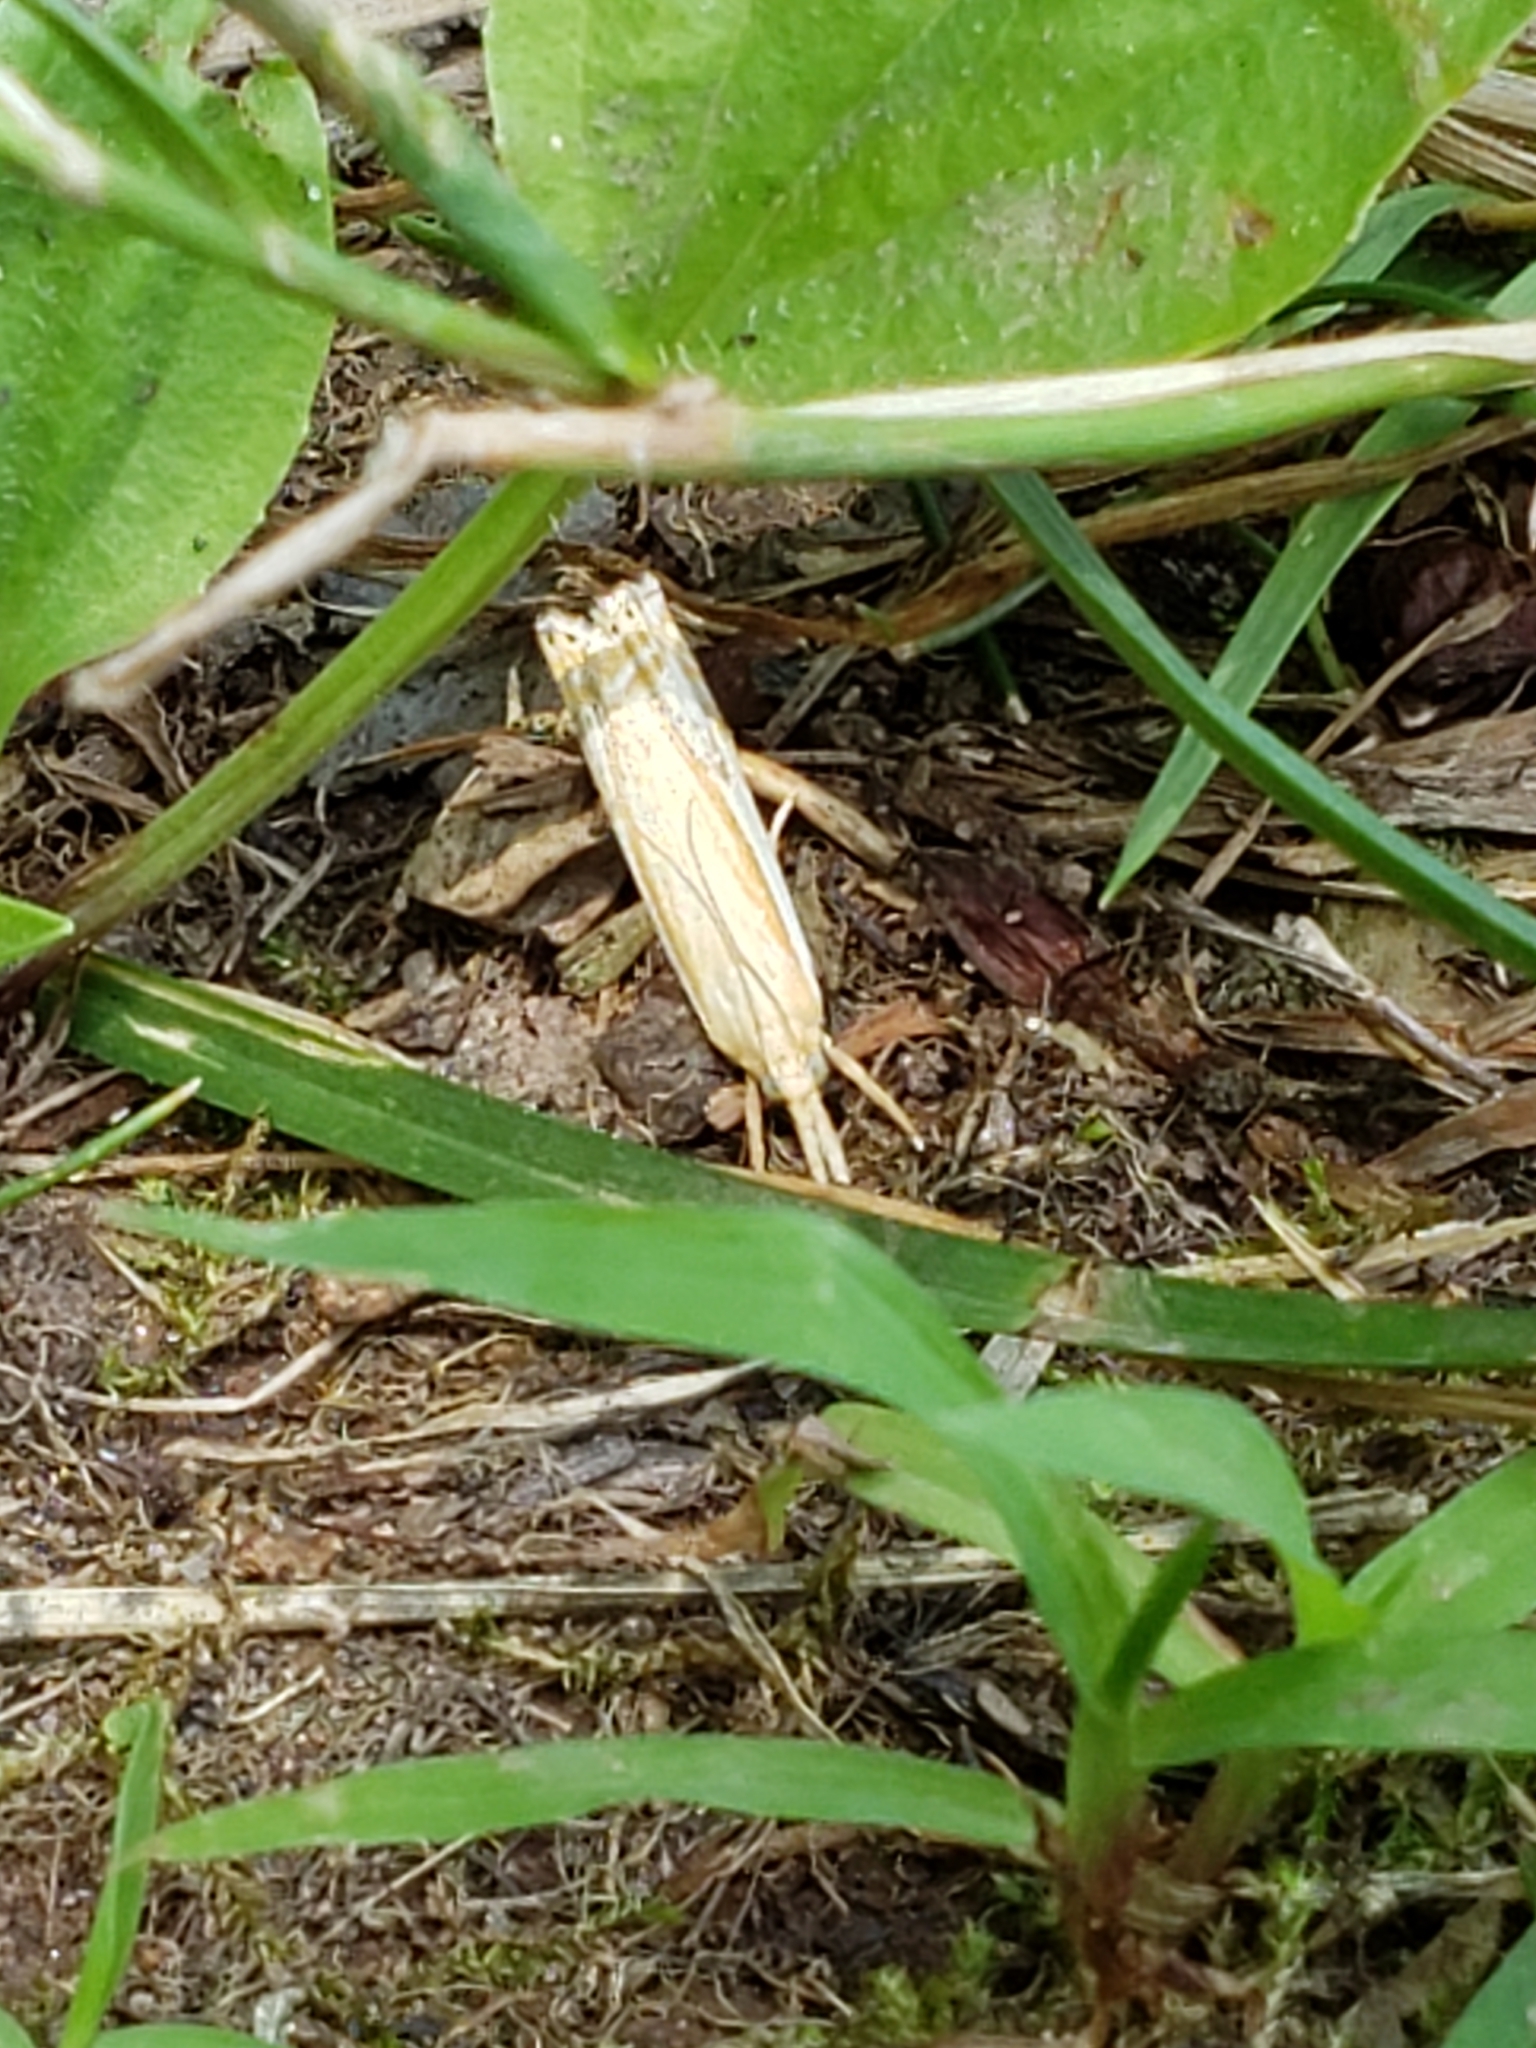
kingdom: Animalia
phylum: Arthropoda
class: Insecta
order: Lepidoptera
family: Crambidae
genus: Crambus
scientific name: Crambus
